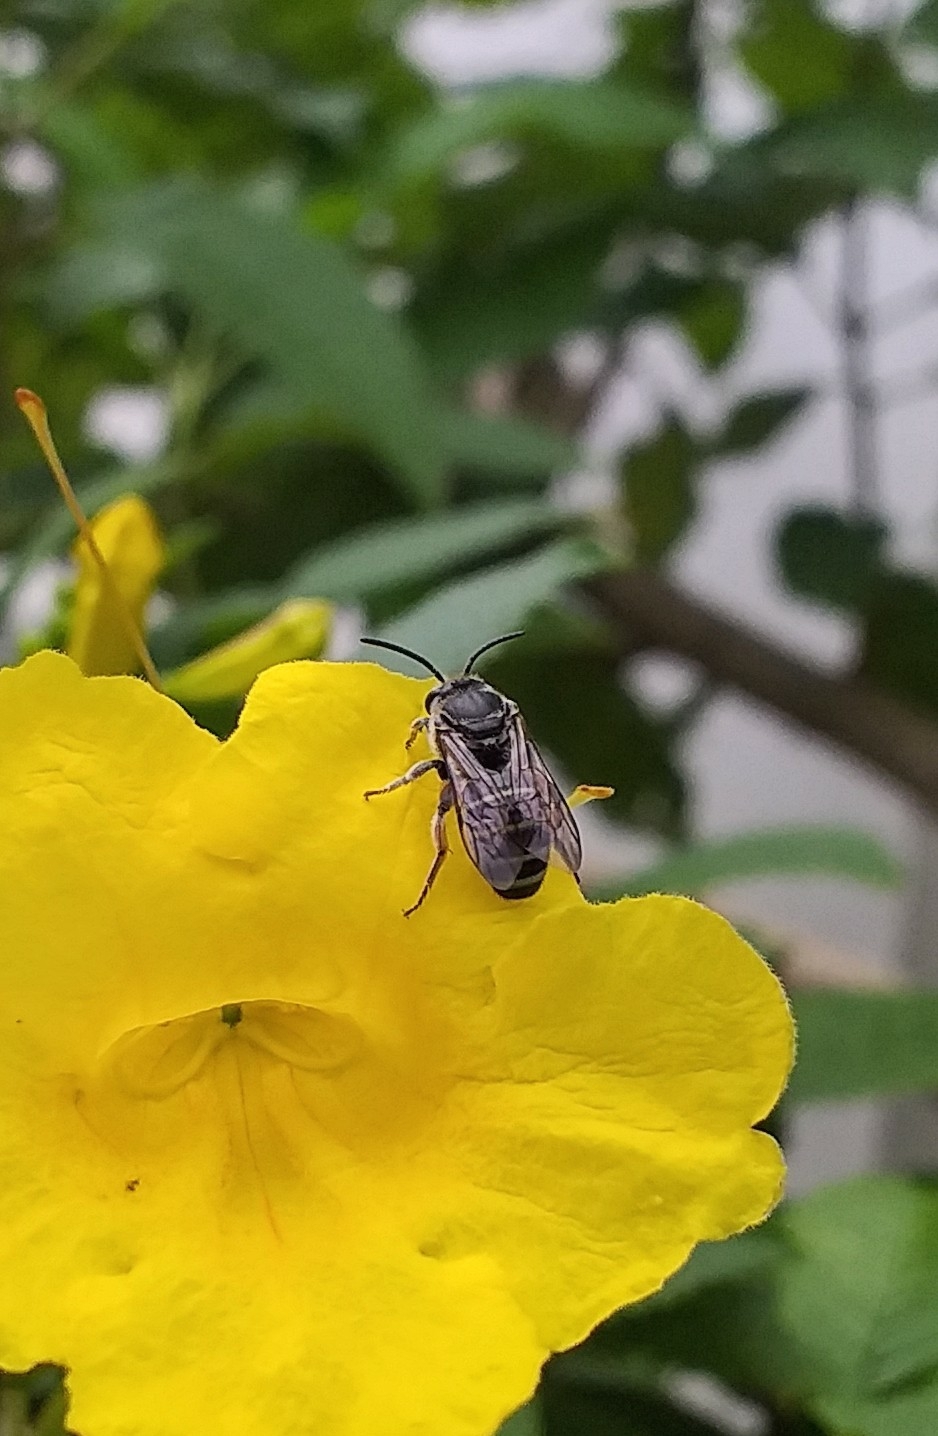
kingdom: Animalia
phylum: Arthropoda
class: Insecta
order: Hymenoptera
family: Halictidae
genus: Nomia
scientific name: Nomia westwoodi
